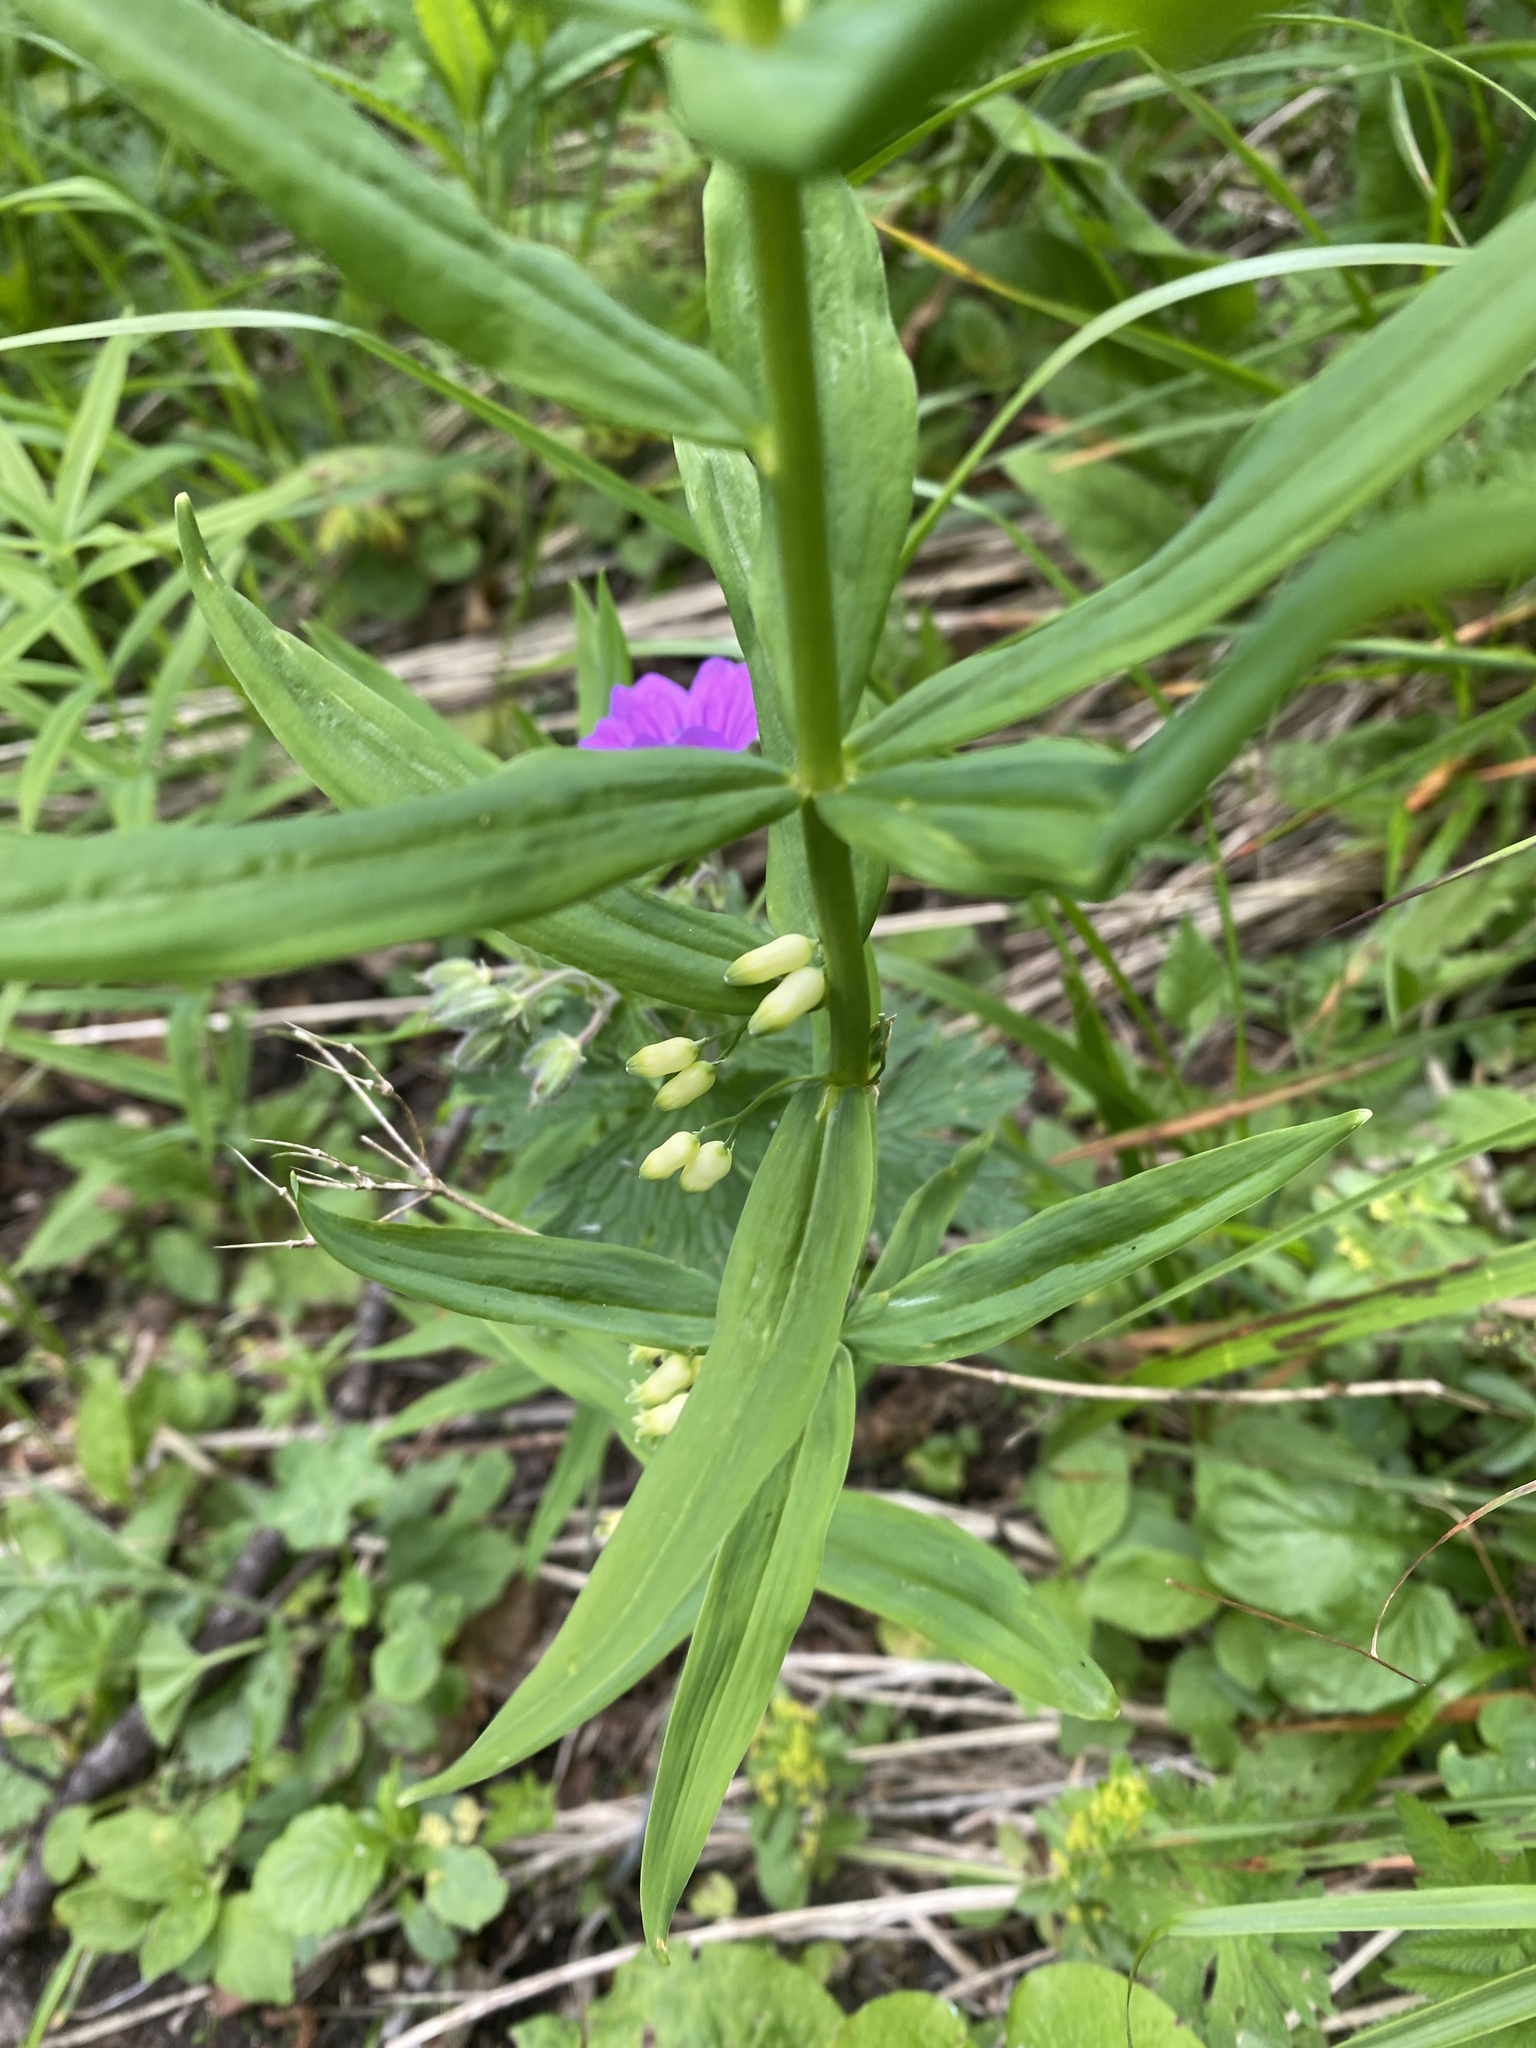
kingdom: Plantae
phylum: Tracheophyta
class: Liliopsida
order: Asparagales
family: Asparagaceae
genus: Polygonatum
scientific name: Polygonatum verticillatum
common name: Whorled solomon's-seal
